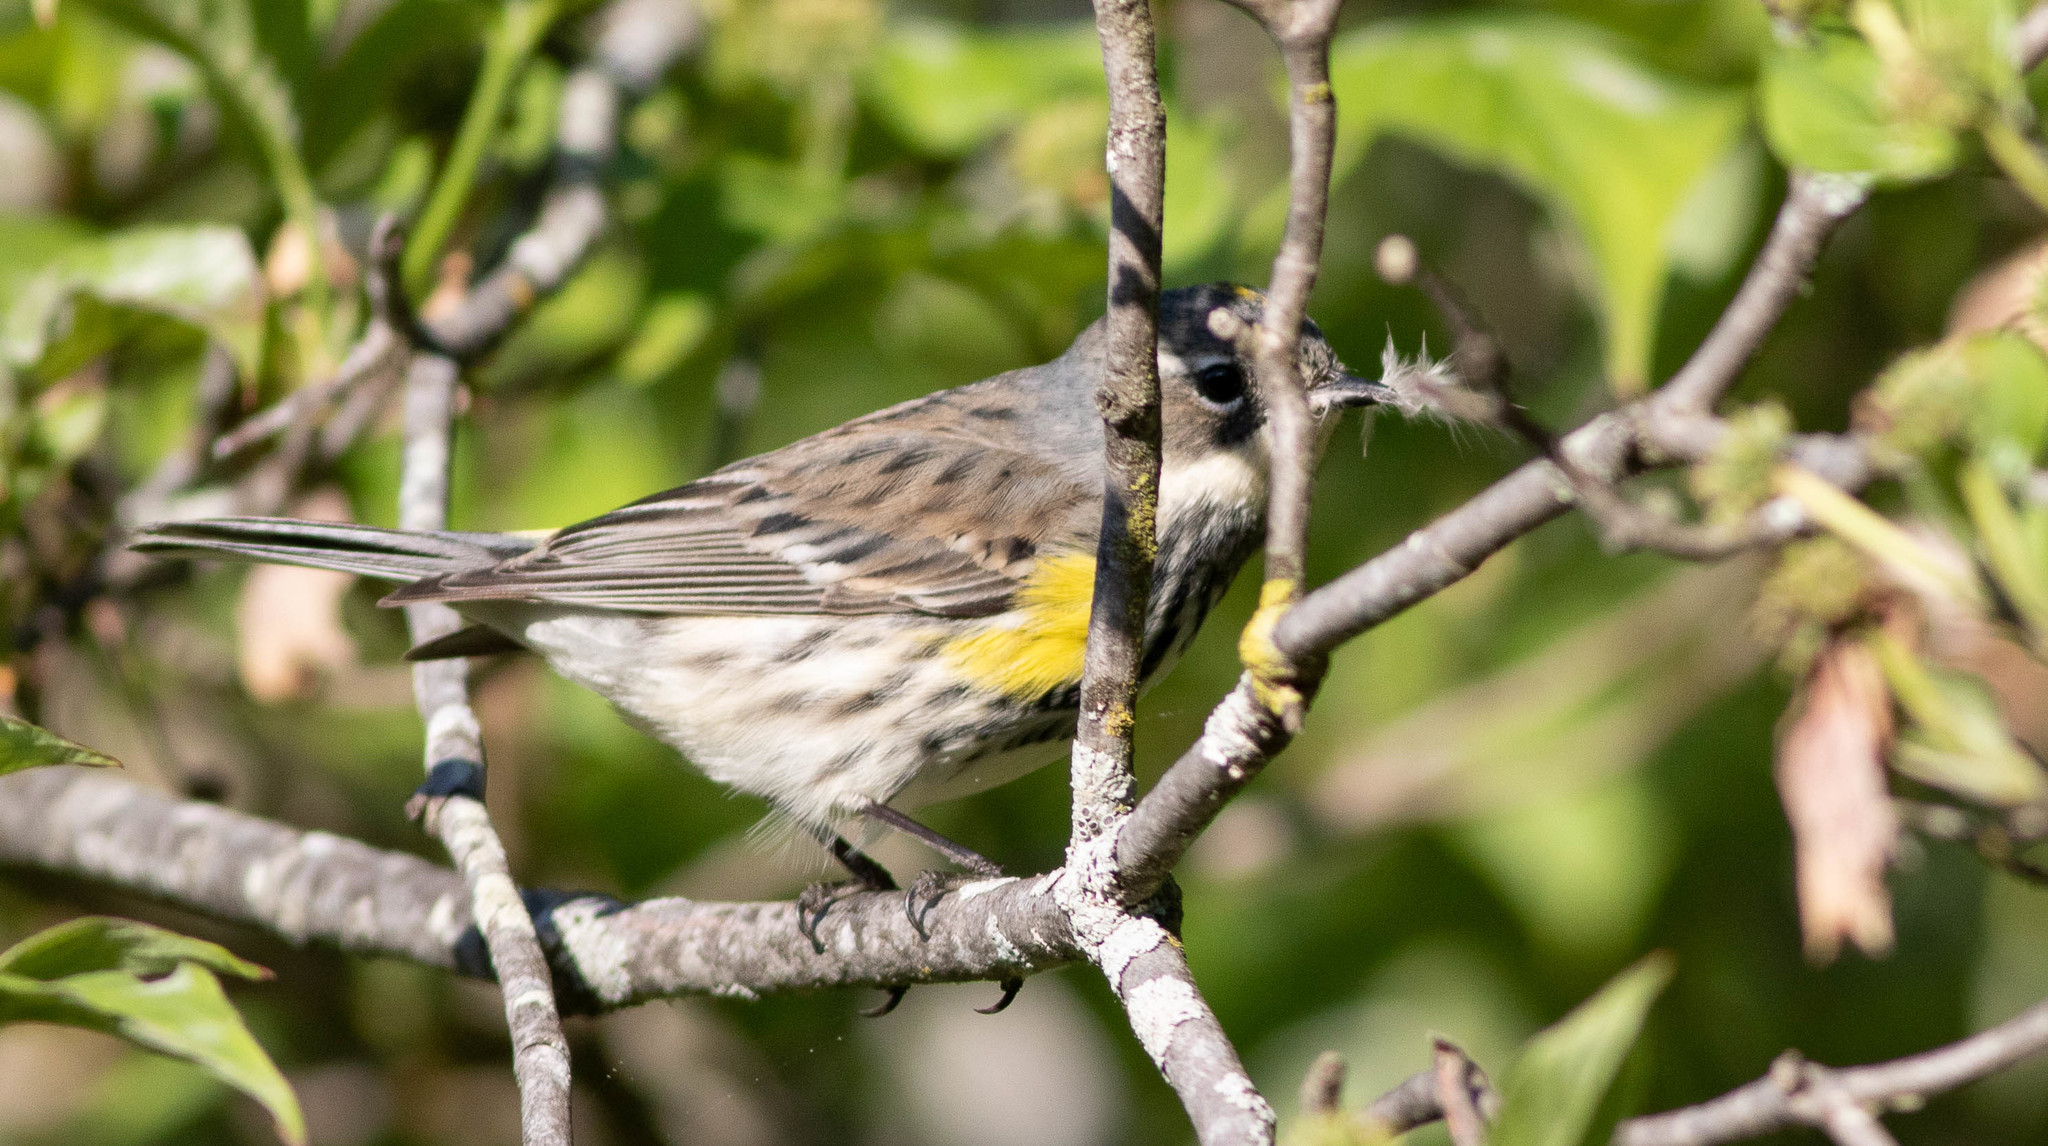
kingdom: Animalia
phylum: Chordata
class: Aves
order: Passeriformes
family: Parulidae
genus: Setophaga
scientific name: Setophaga coronata
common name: Myrtle warbler
